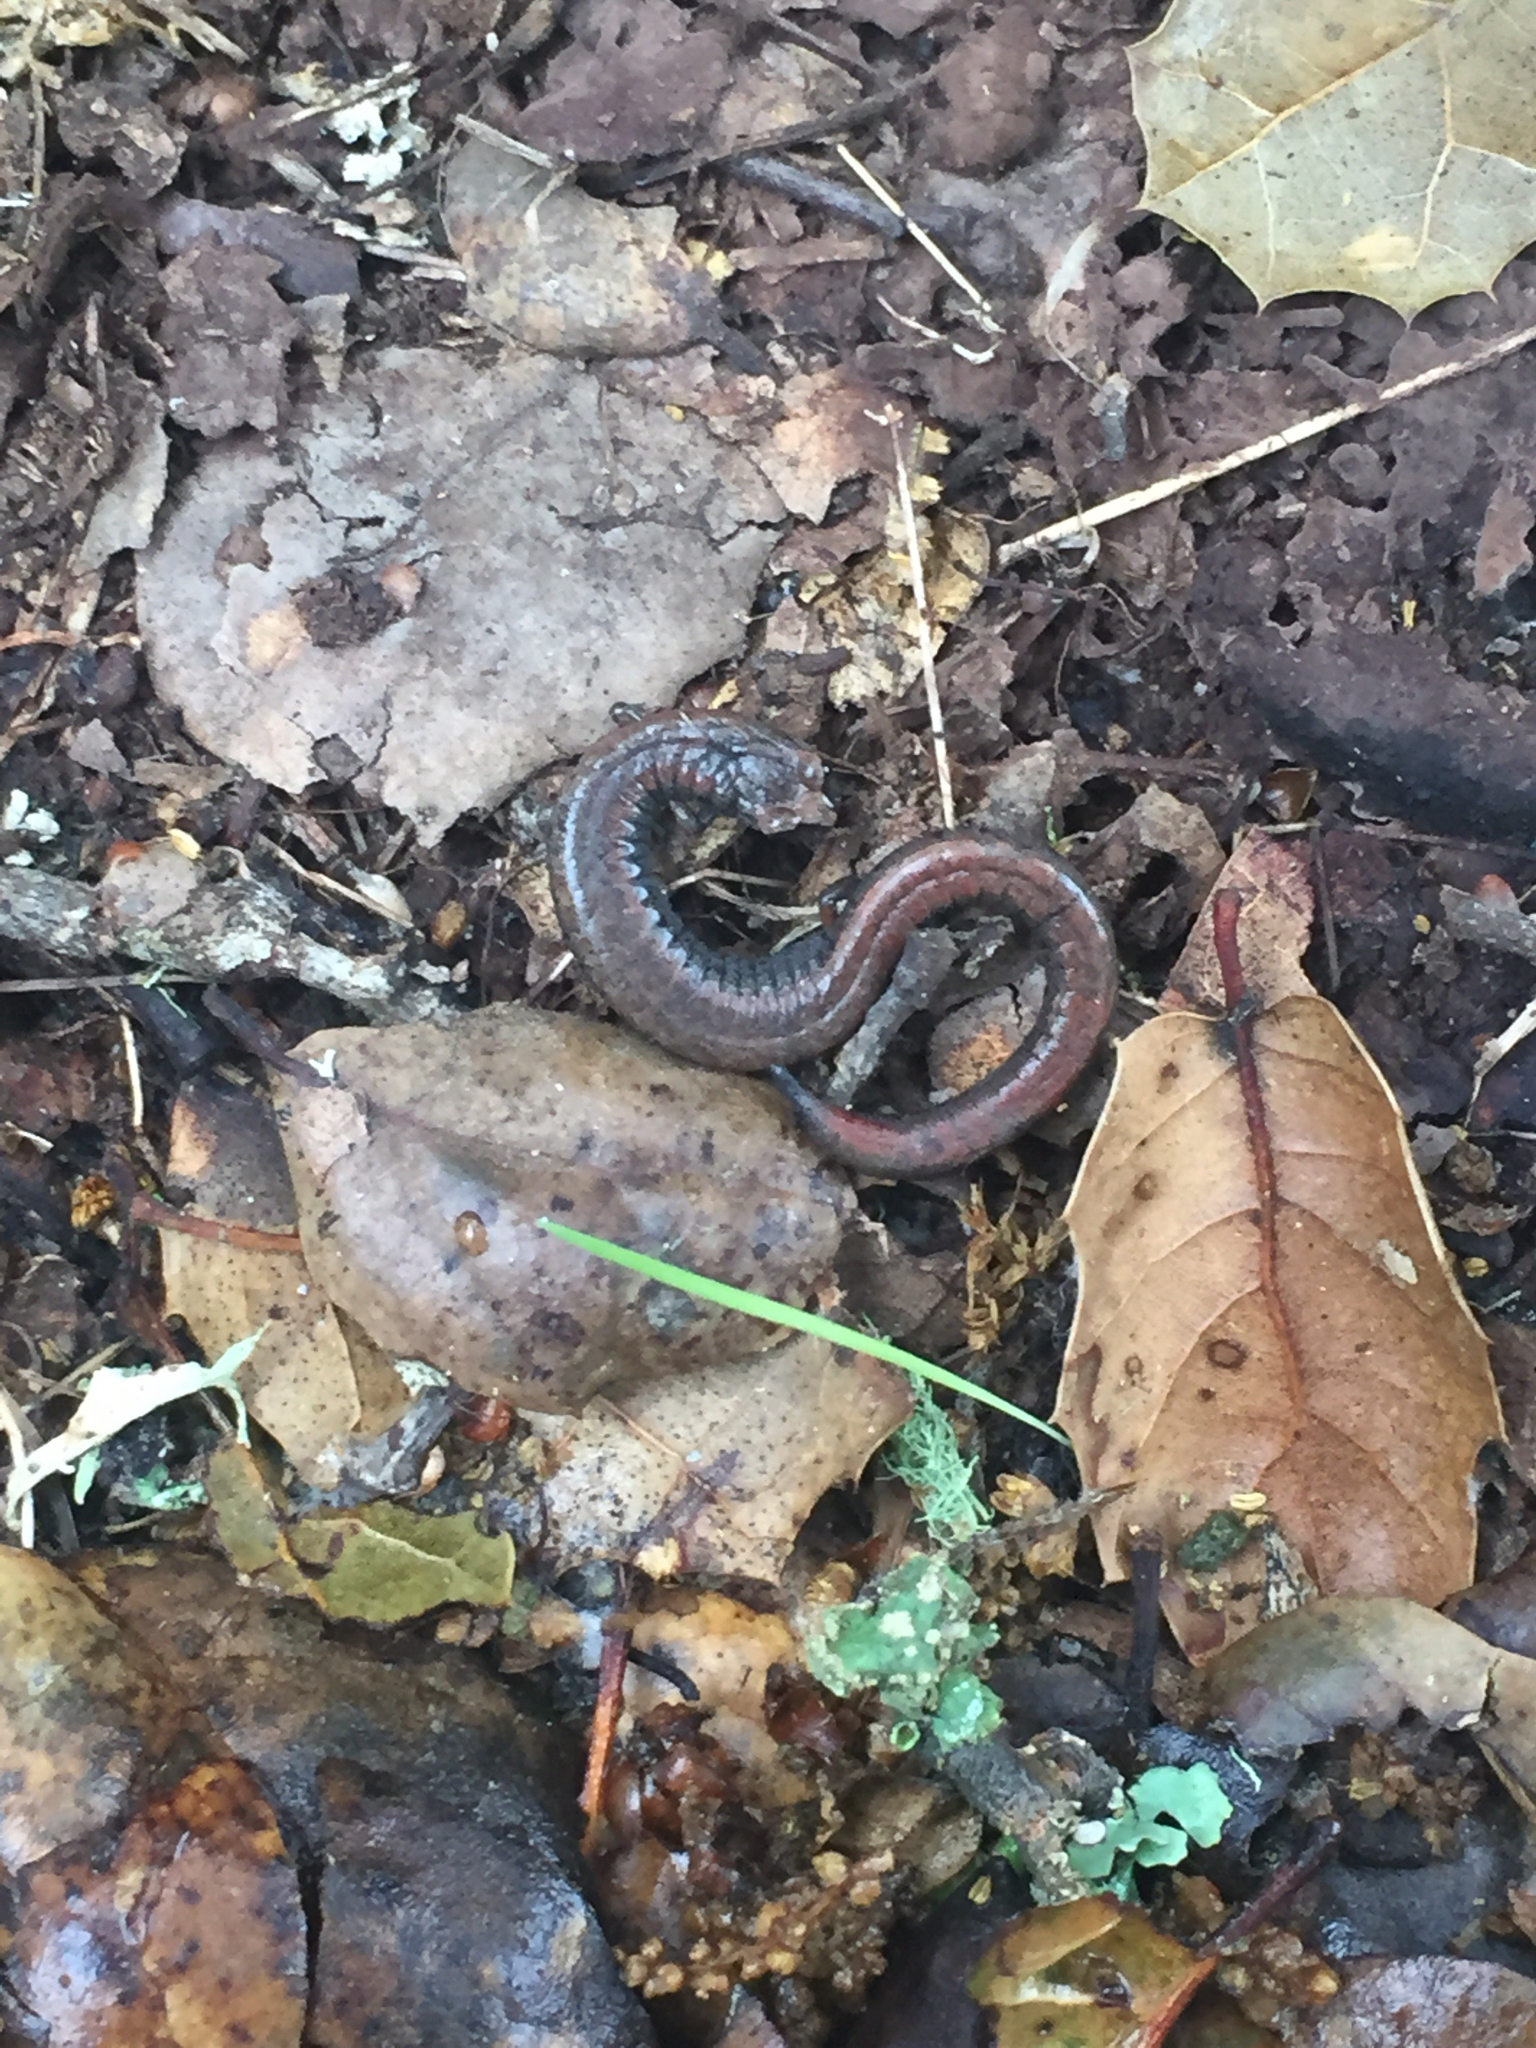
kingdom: Animalia
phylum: Chordata
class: Amphibia
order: Caudata
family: Plethodontidae
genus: Batrachoseps
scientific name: Batrachoseps attenuatus
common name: California slender salamander
